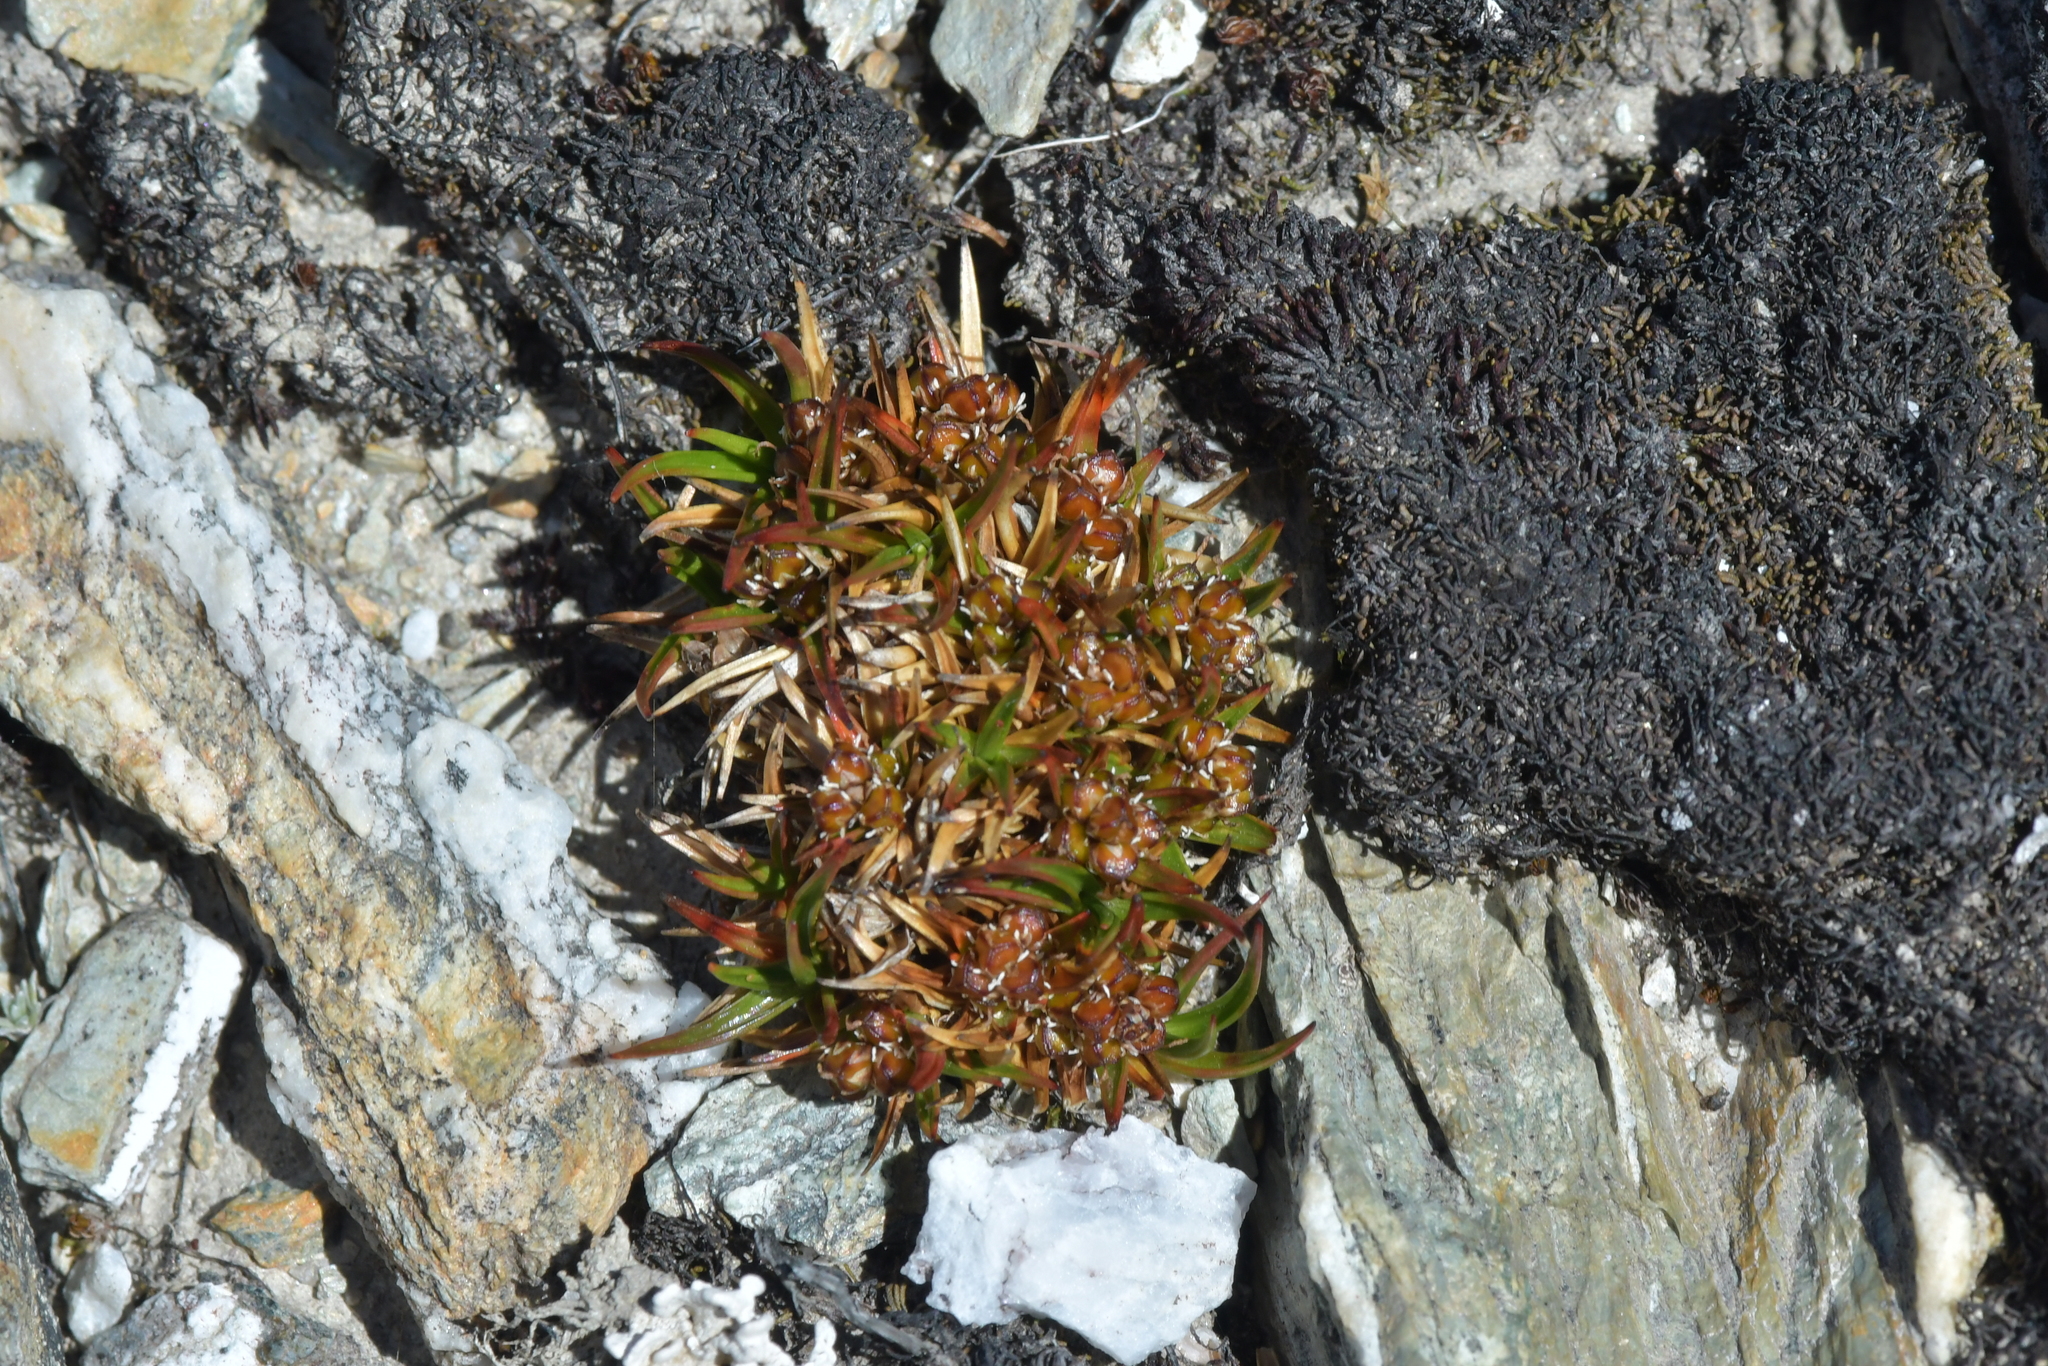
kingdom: Plantae
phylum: Tracheophyta
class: Liliopsida
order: Poales
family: Juncaceae
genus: Luzula
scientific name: Luzula colensoi
